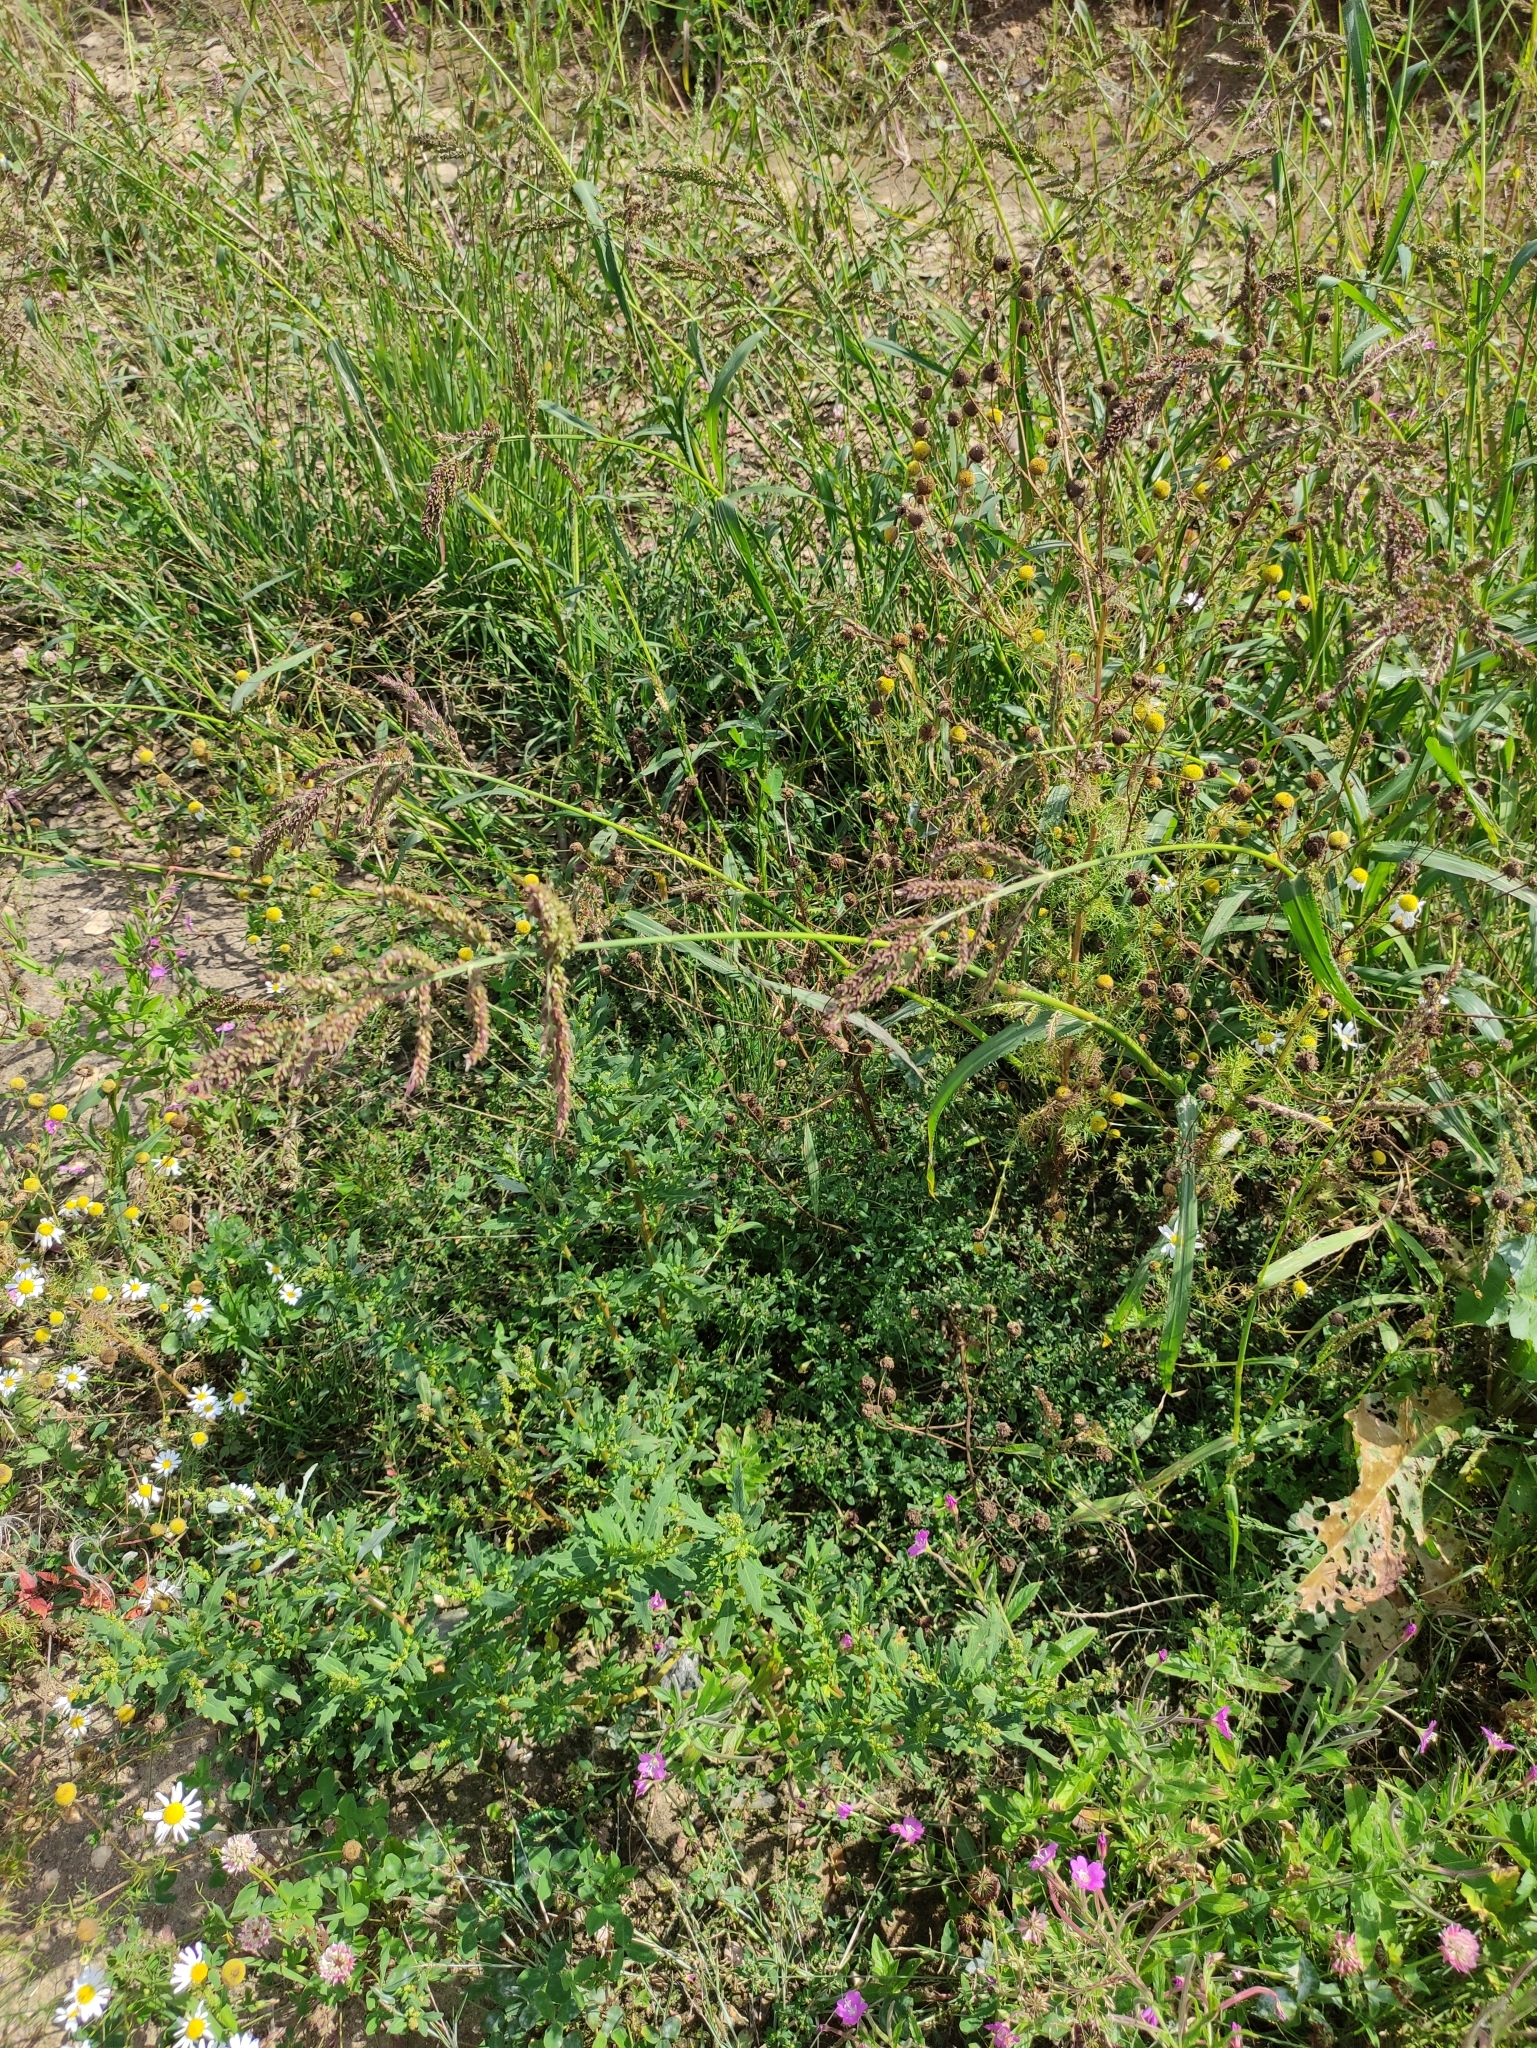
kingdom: Plantae
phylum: Tracheophyta
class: Liliopsida
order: Poales
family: Poaceae
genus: Echinochloa
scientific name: Echinochloa crus-galli
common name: Cockspur
